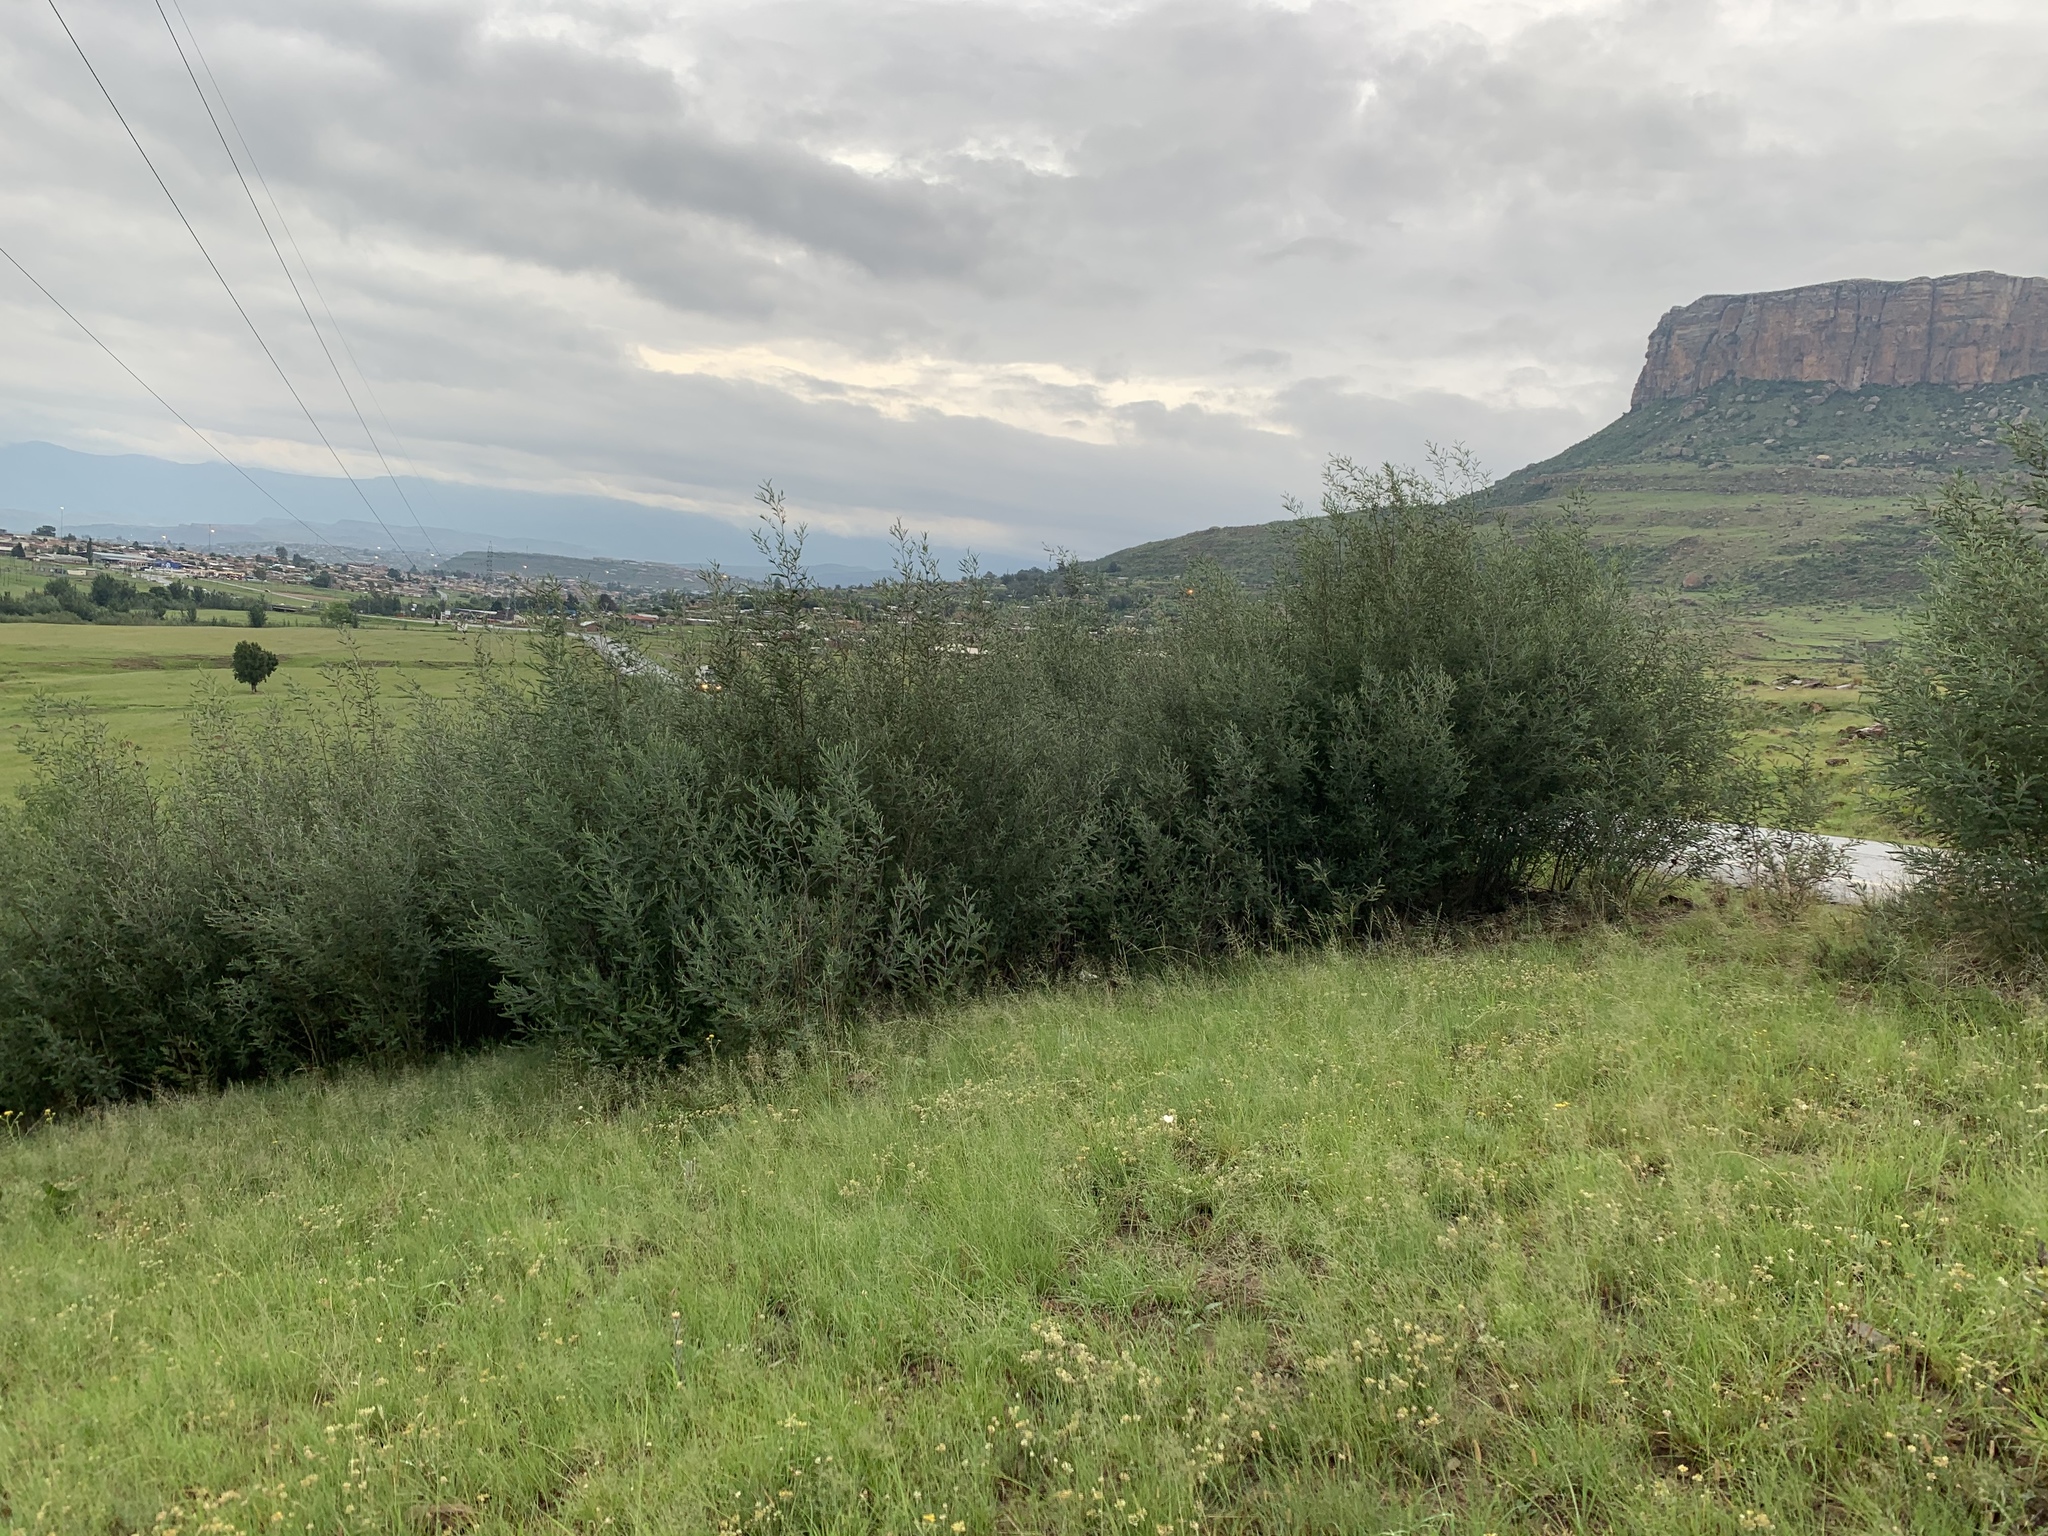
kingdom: Plantae
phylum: Tracheophyta
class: Magnoliopsida
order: Fabales
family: Fabaceae
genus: Acacia
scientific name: Acacia dealbata
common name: Silver wattle
